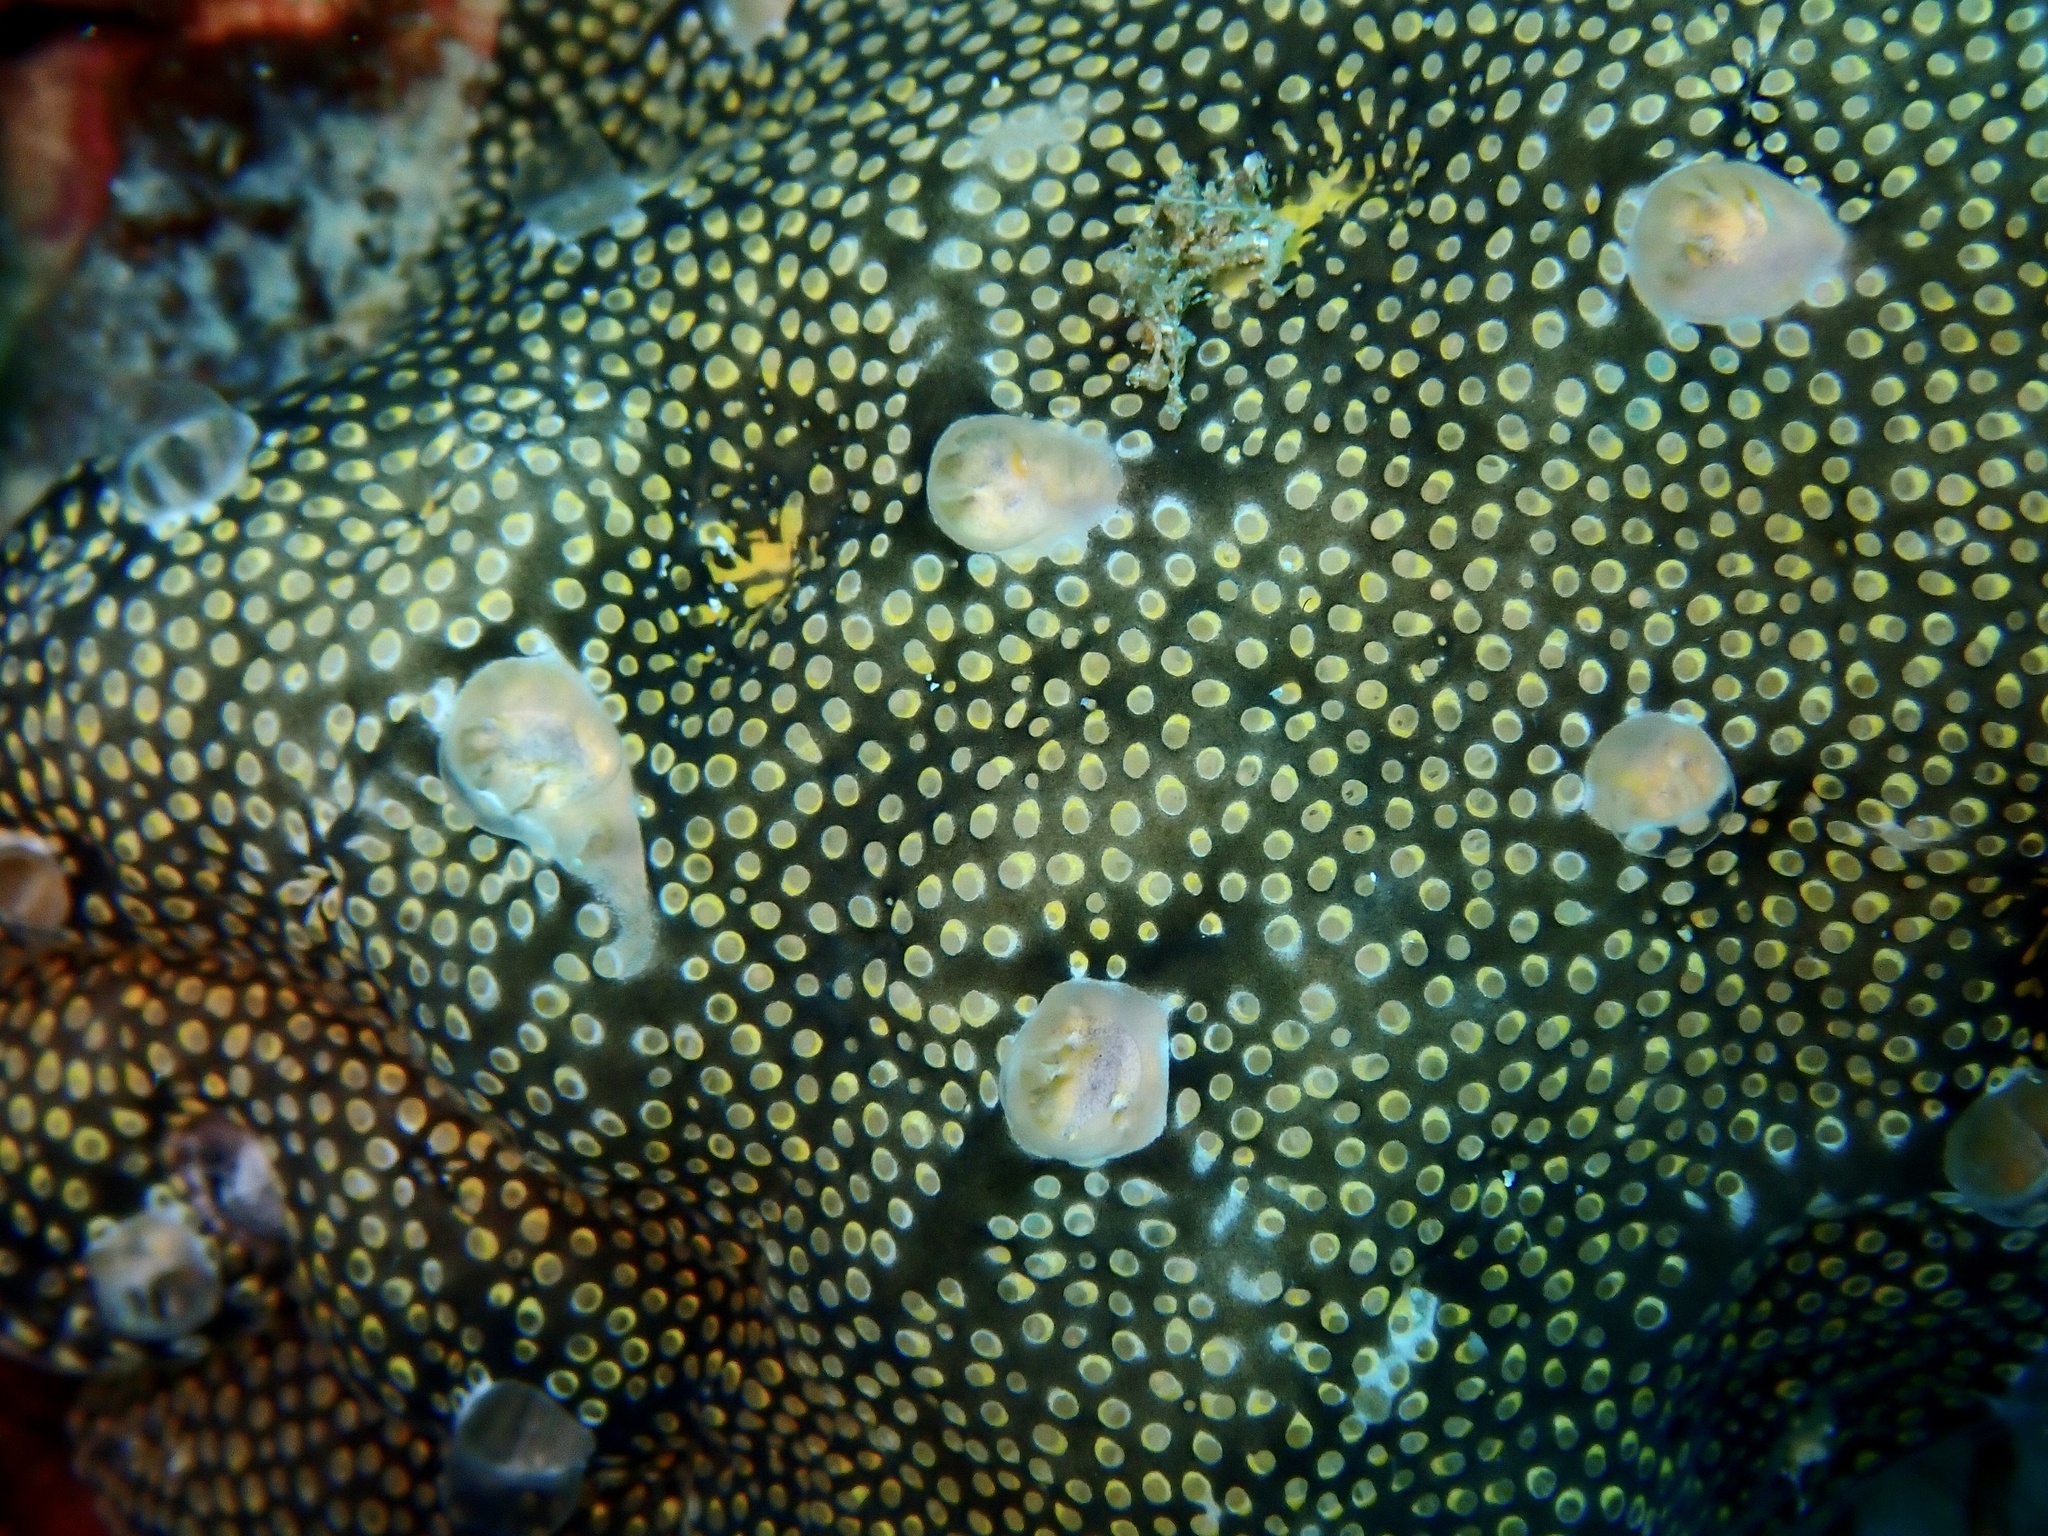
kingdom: Animalia
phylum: Chordata
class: Ascidiacea
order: Aplousobranchia
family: Didemnidae
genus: Leptoclinides
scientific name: Leptoclinides reticulatus
